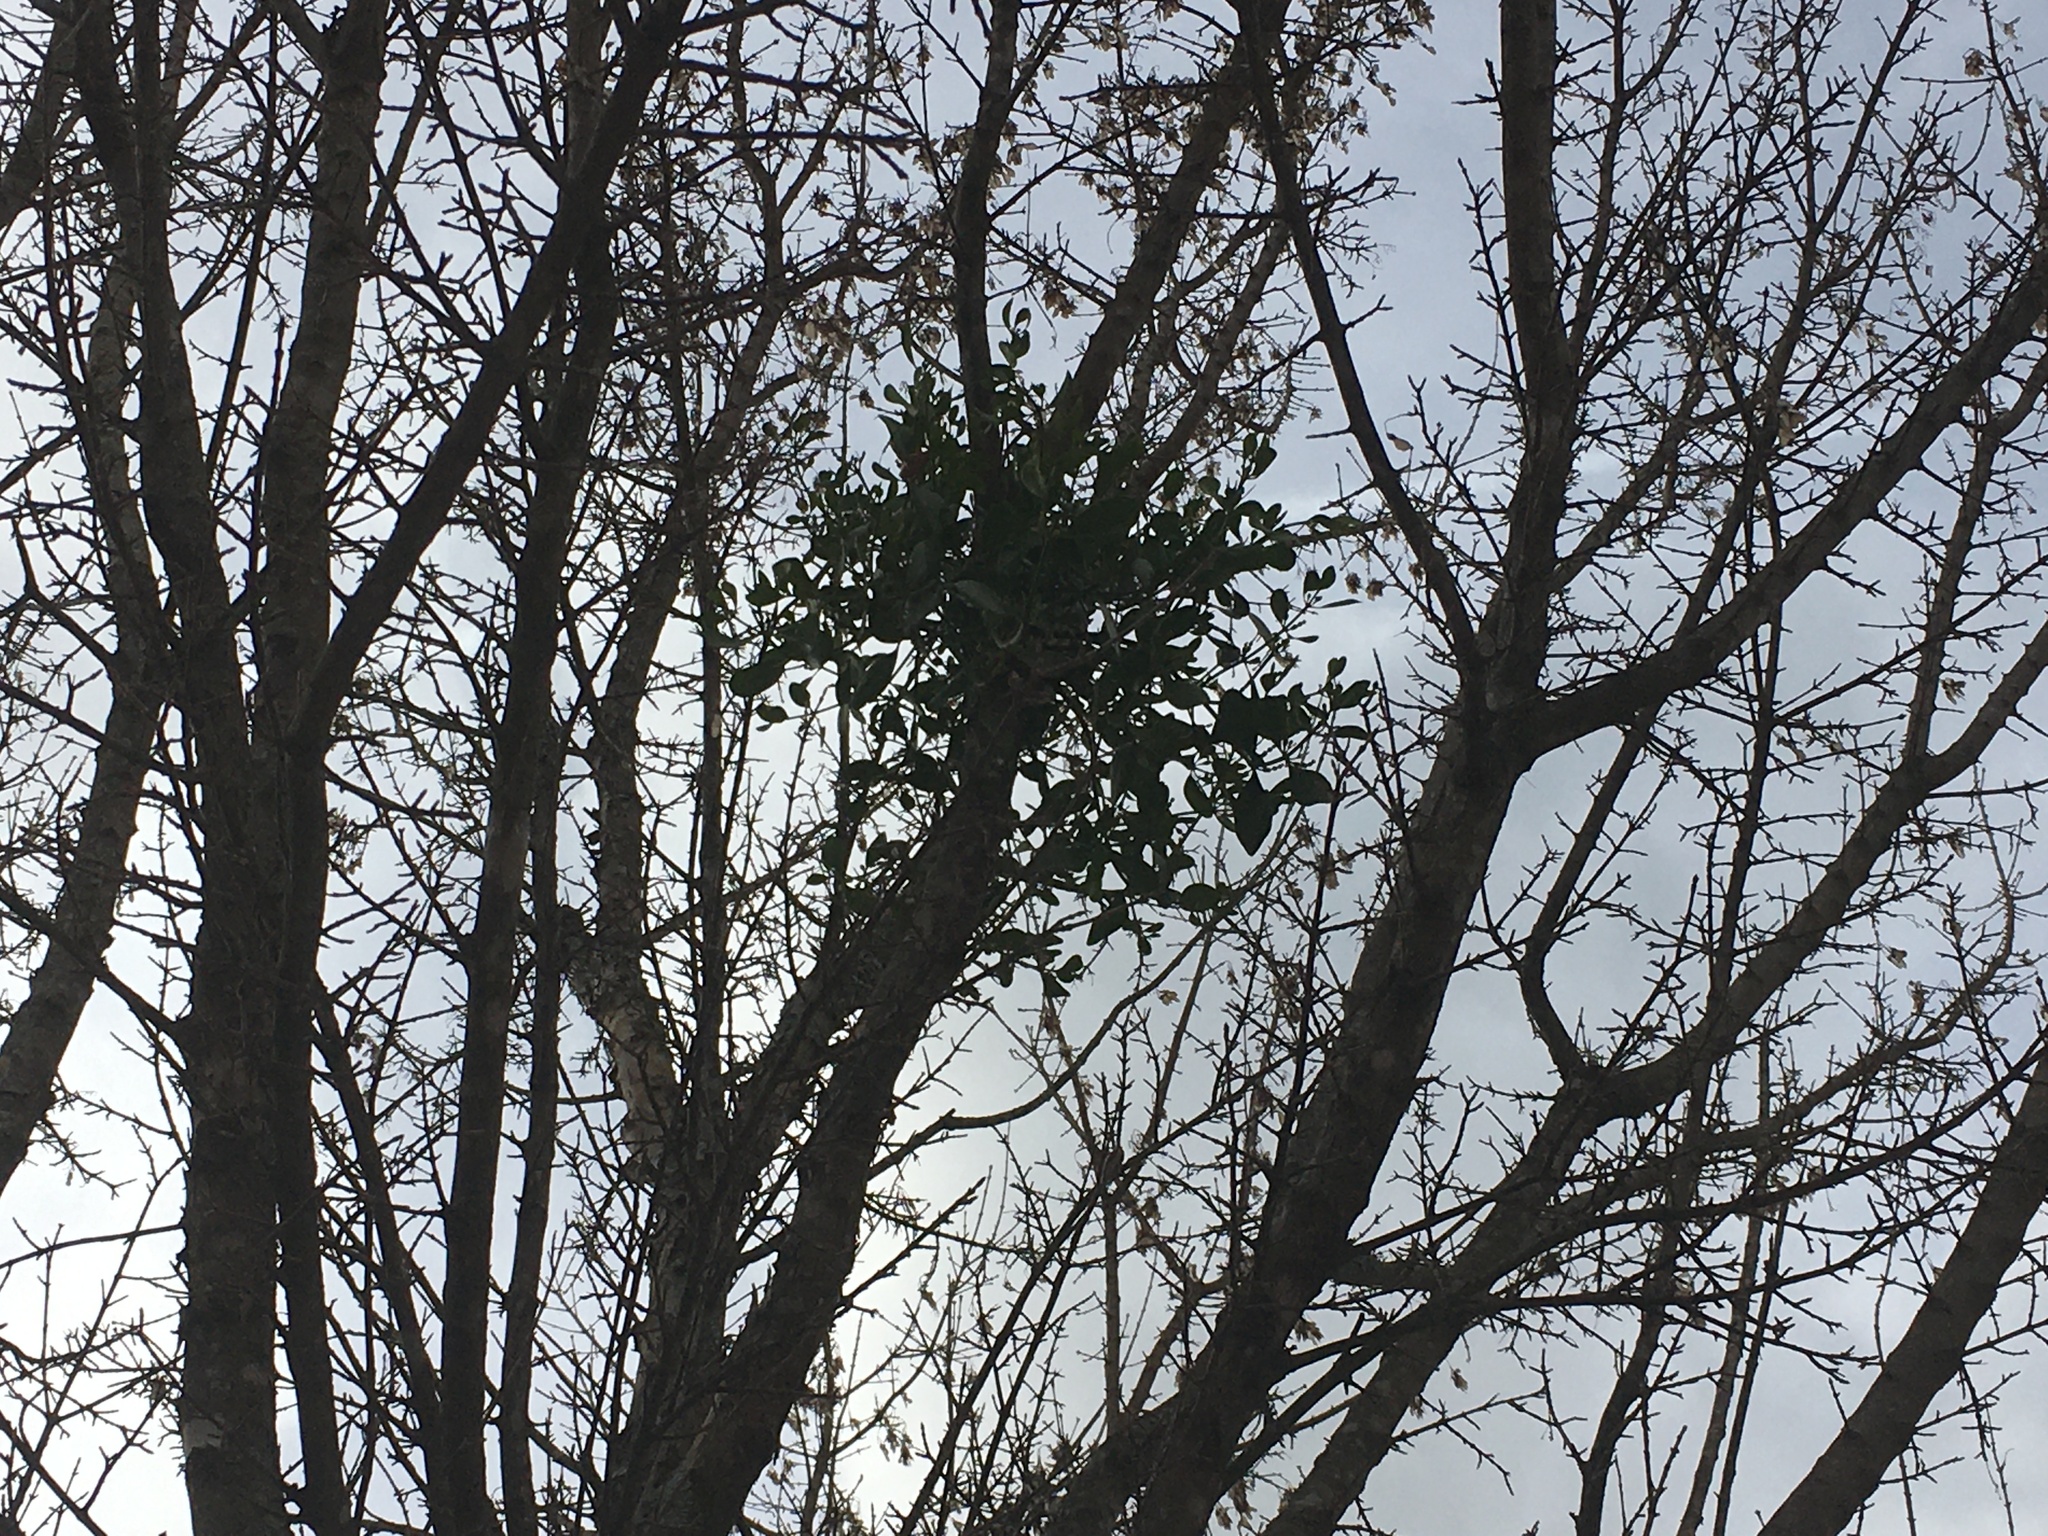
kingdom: Plantae
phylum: Tracheophyta
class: Magnoliopsida
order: Santalales
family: Viscaceae
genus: Phoradendron
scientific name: Phoradendron leucarpum
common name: Pacific mistletoe
